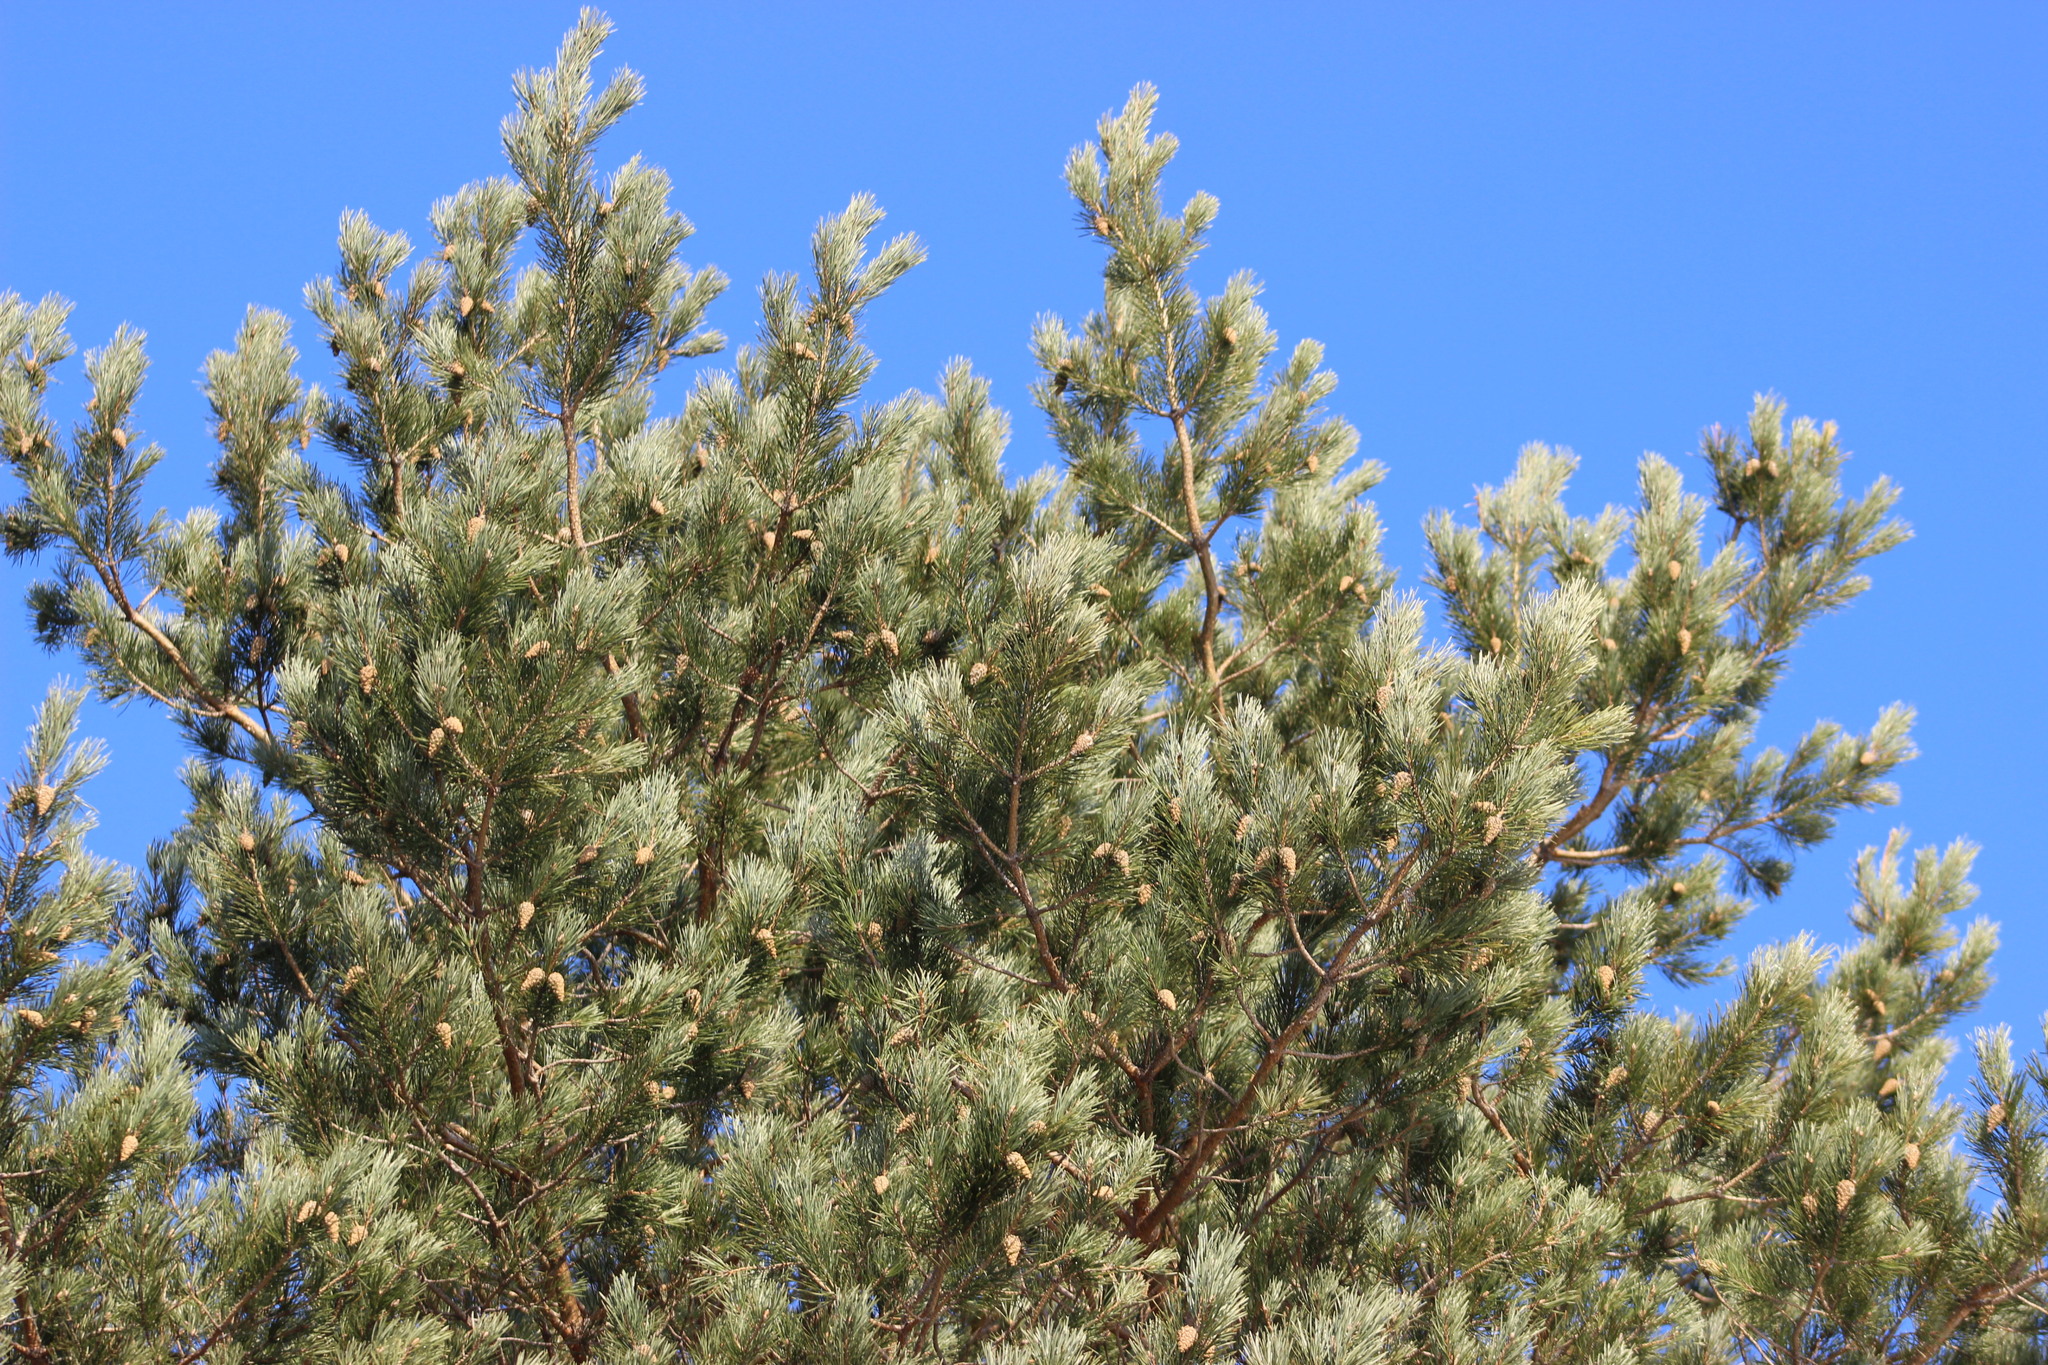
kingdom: Plantae
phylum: Tracheophyta
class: Pinopsida
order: Pinales
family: Pinaceae
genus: Pinus
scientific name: Pinus sylvestris
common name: Scots pine
